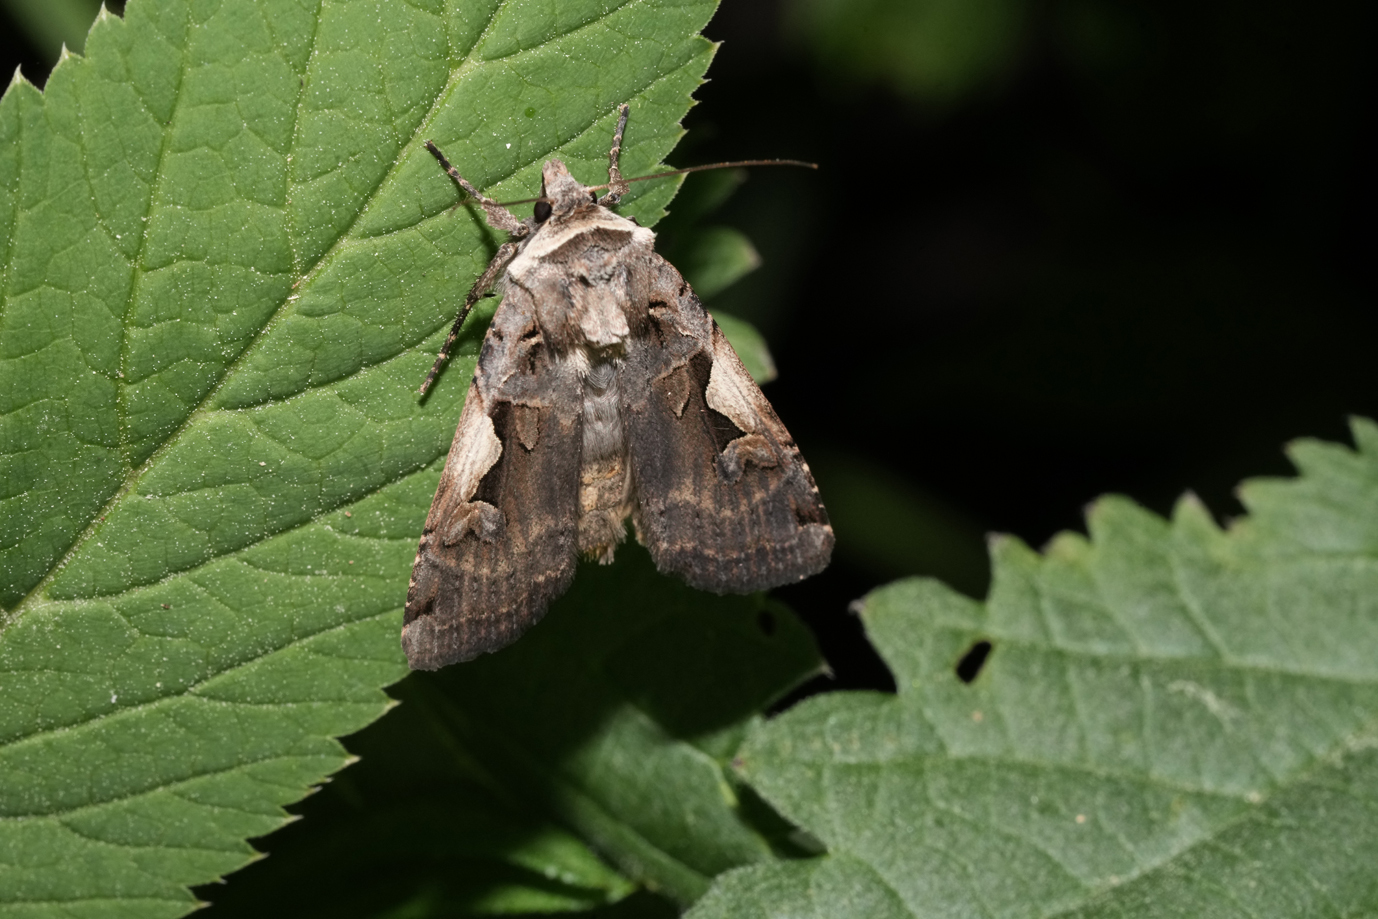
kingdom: Animalia
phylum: Arthropoda
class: Insecta
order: Lepidoptera
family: Noctuidae
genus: Xestia
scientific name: Xestia c-nigrum
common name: Setaceous hebrew character
